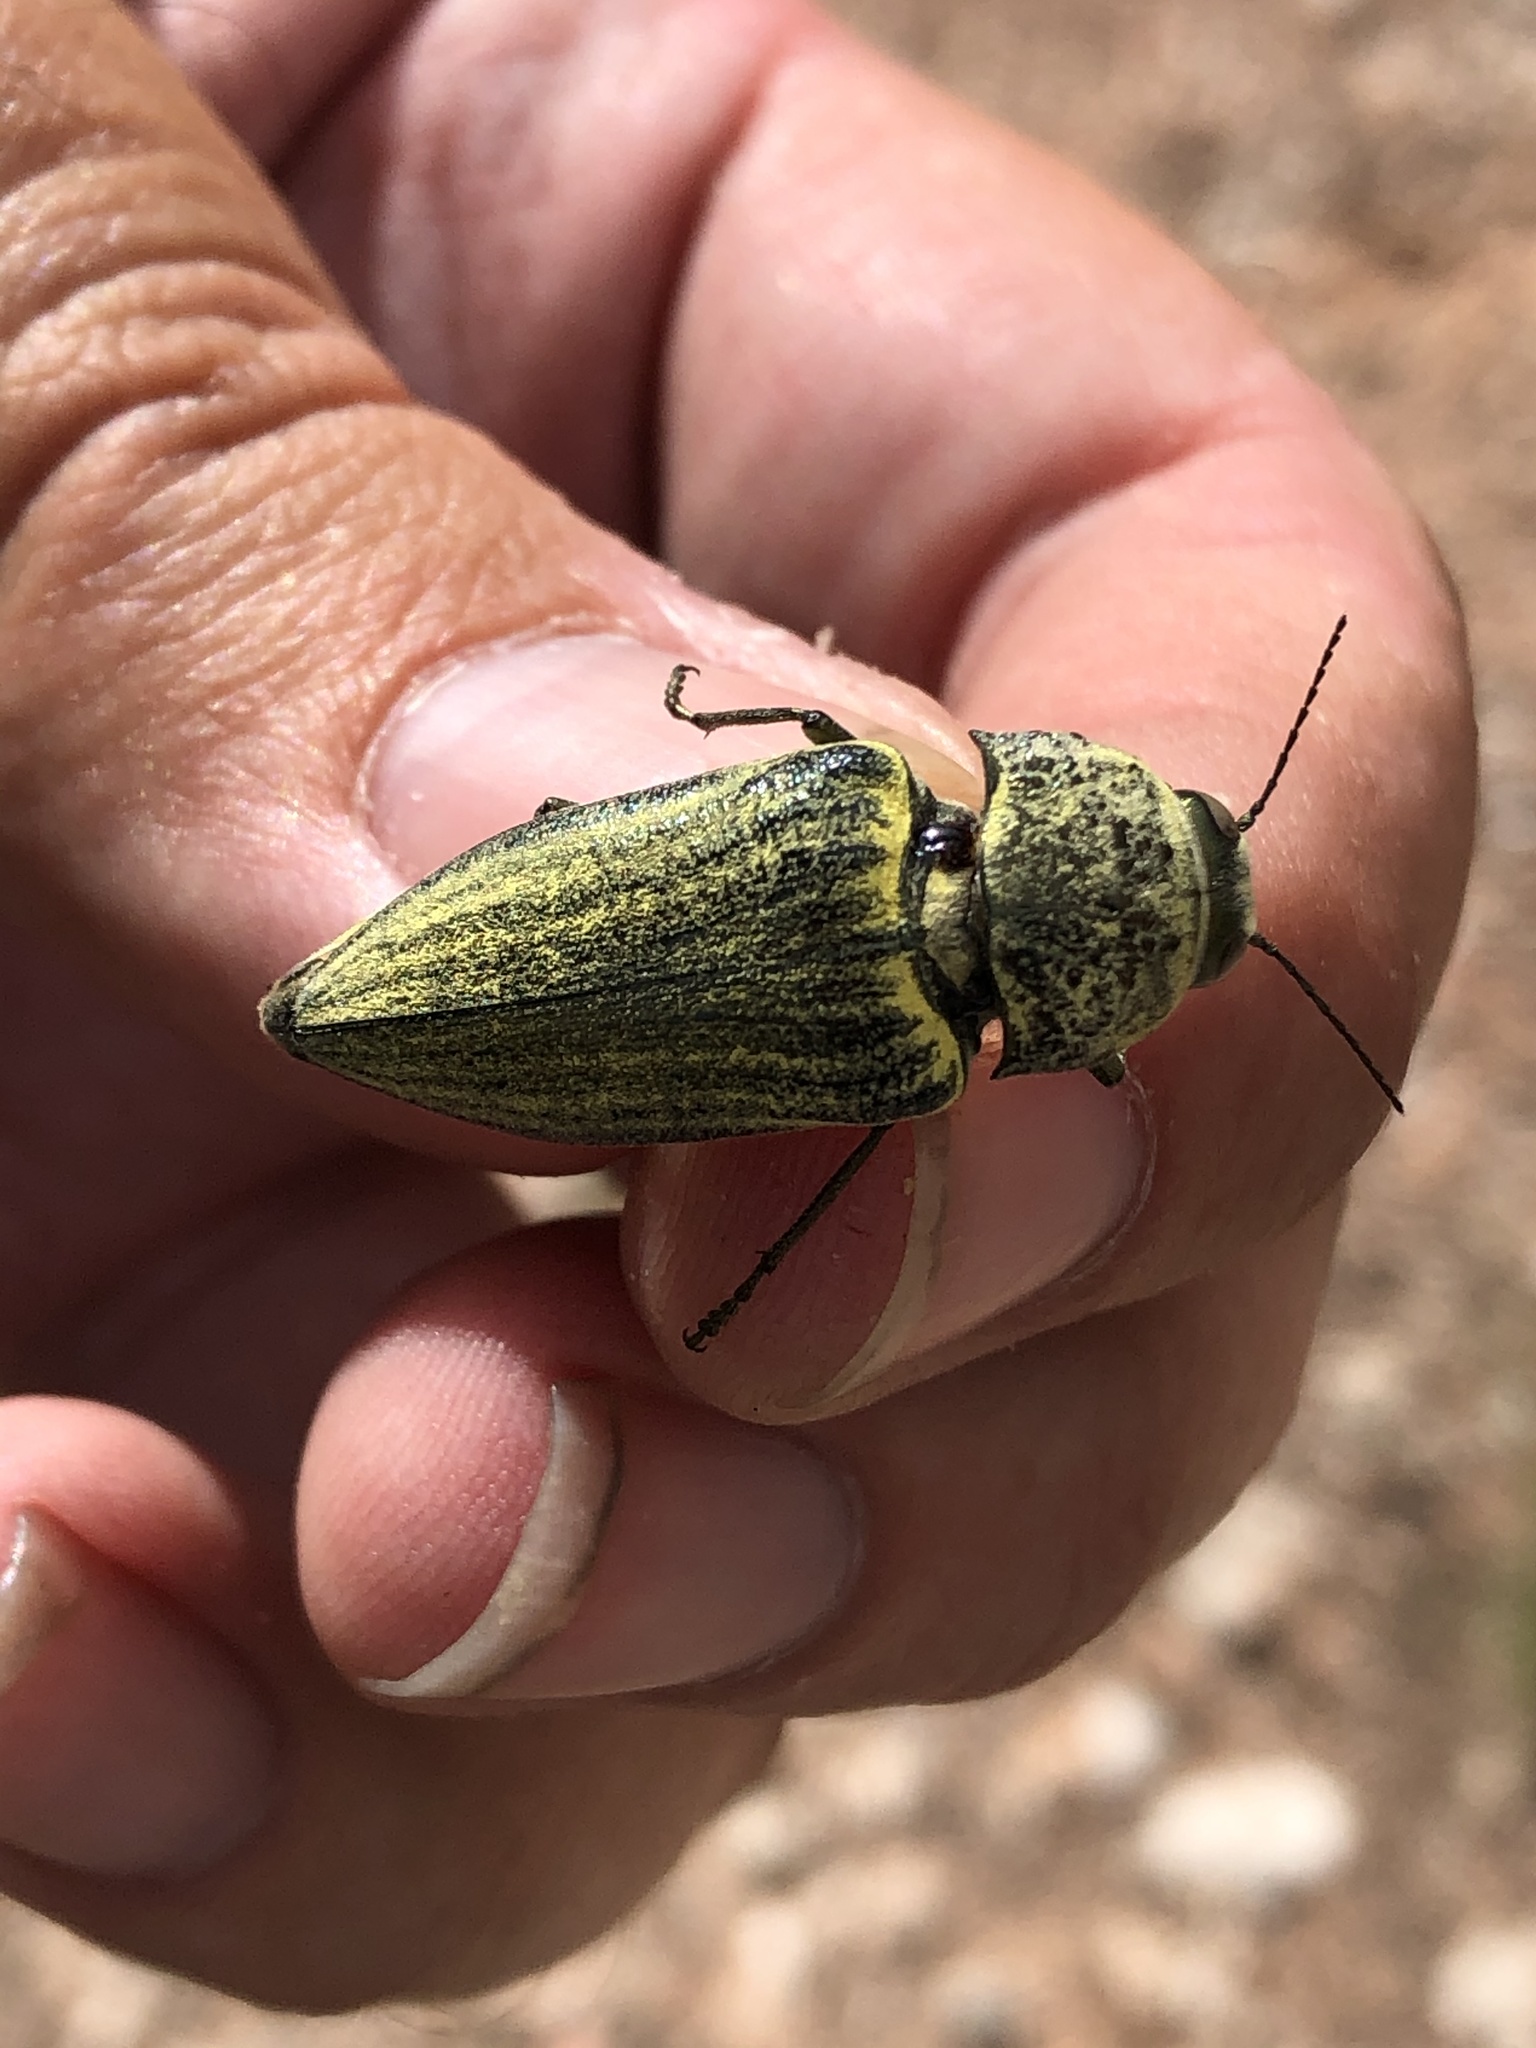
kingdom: Animalia
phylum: Arthropoda
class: Insecta
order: Coleoptera
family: Buprestidae
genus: Gyascutus
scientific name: Gyascutus planicosta
